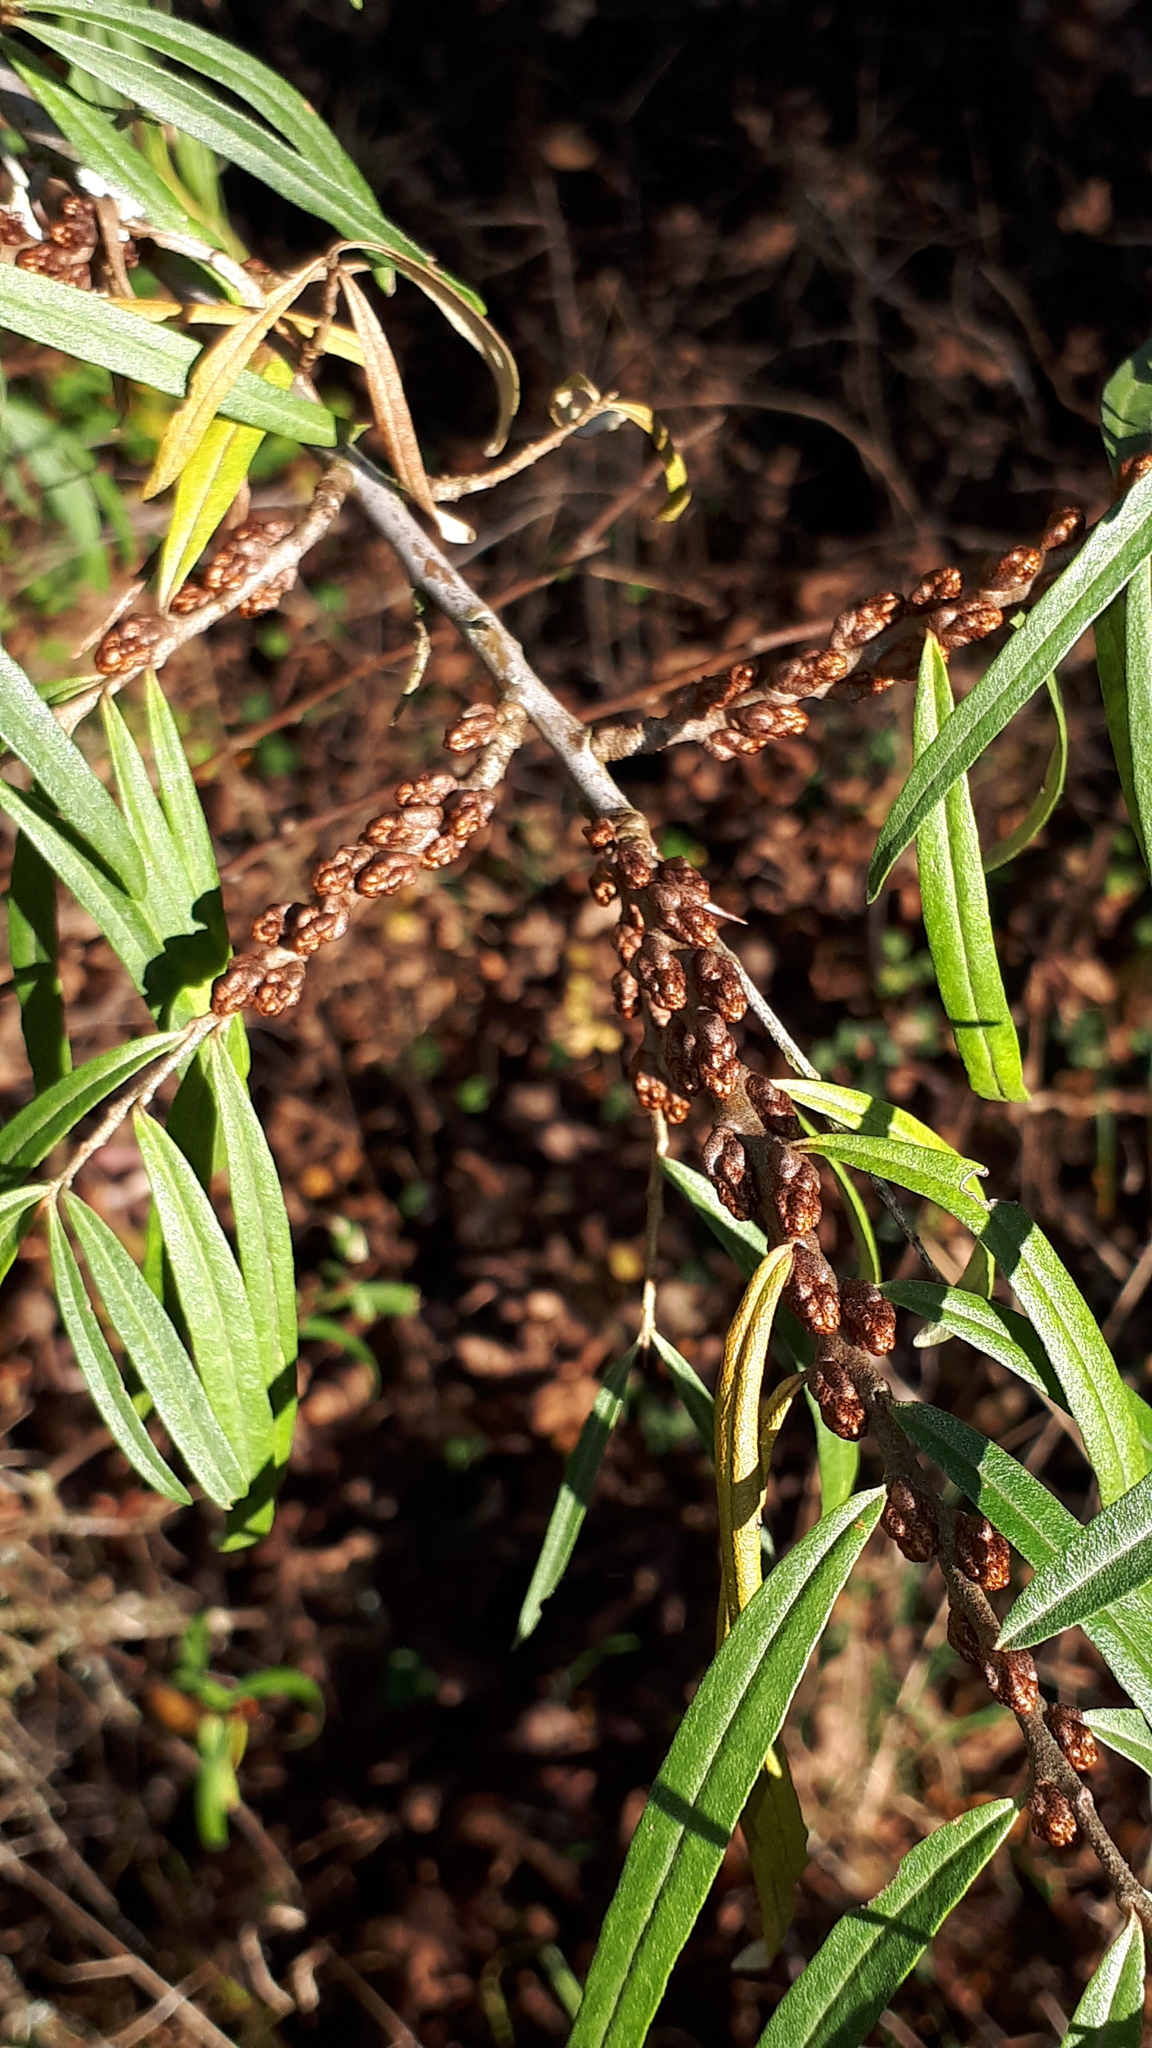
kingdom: Plantae
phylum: Tracheophyta
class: Magnoliopsida
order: Rosales
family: Elaeagnaceae
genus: Hippophae
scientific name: Hippophae rhamnoides
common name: Sea-buckthorn
